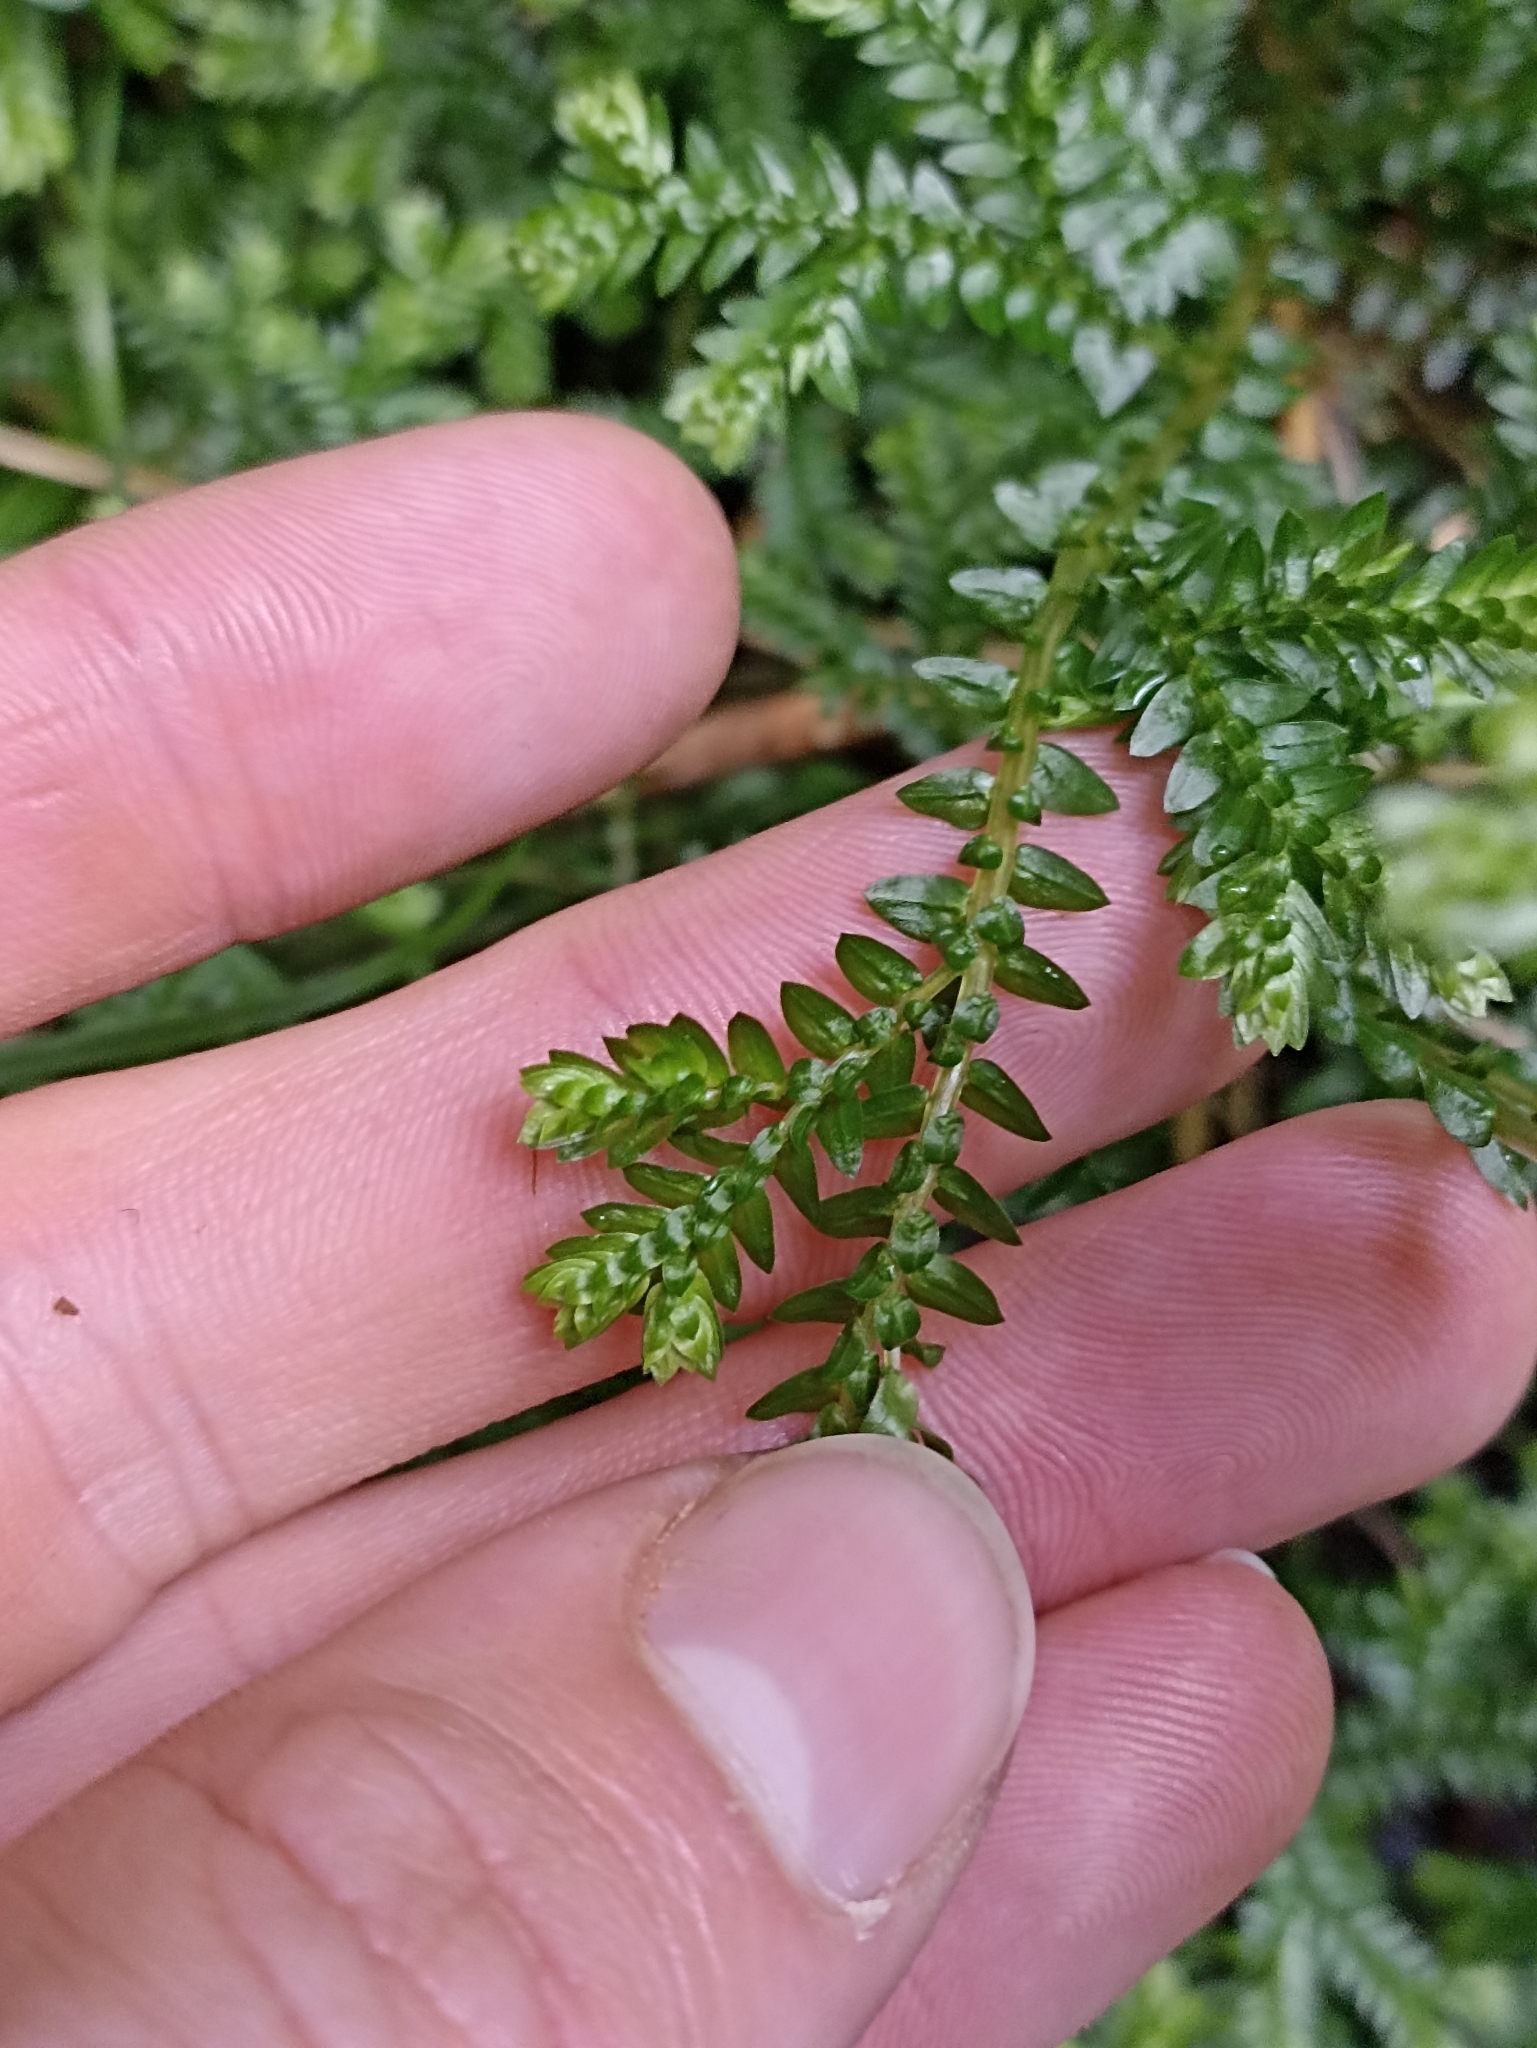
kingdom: Plantae
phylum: Tracheophyta
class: Lycopodiopsida
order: Selaginellales
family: Selaginellaceae
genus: Selaginella
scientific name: Selaginella kraussiana
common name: Krauss' spikemoss
